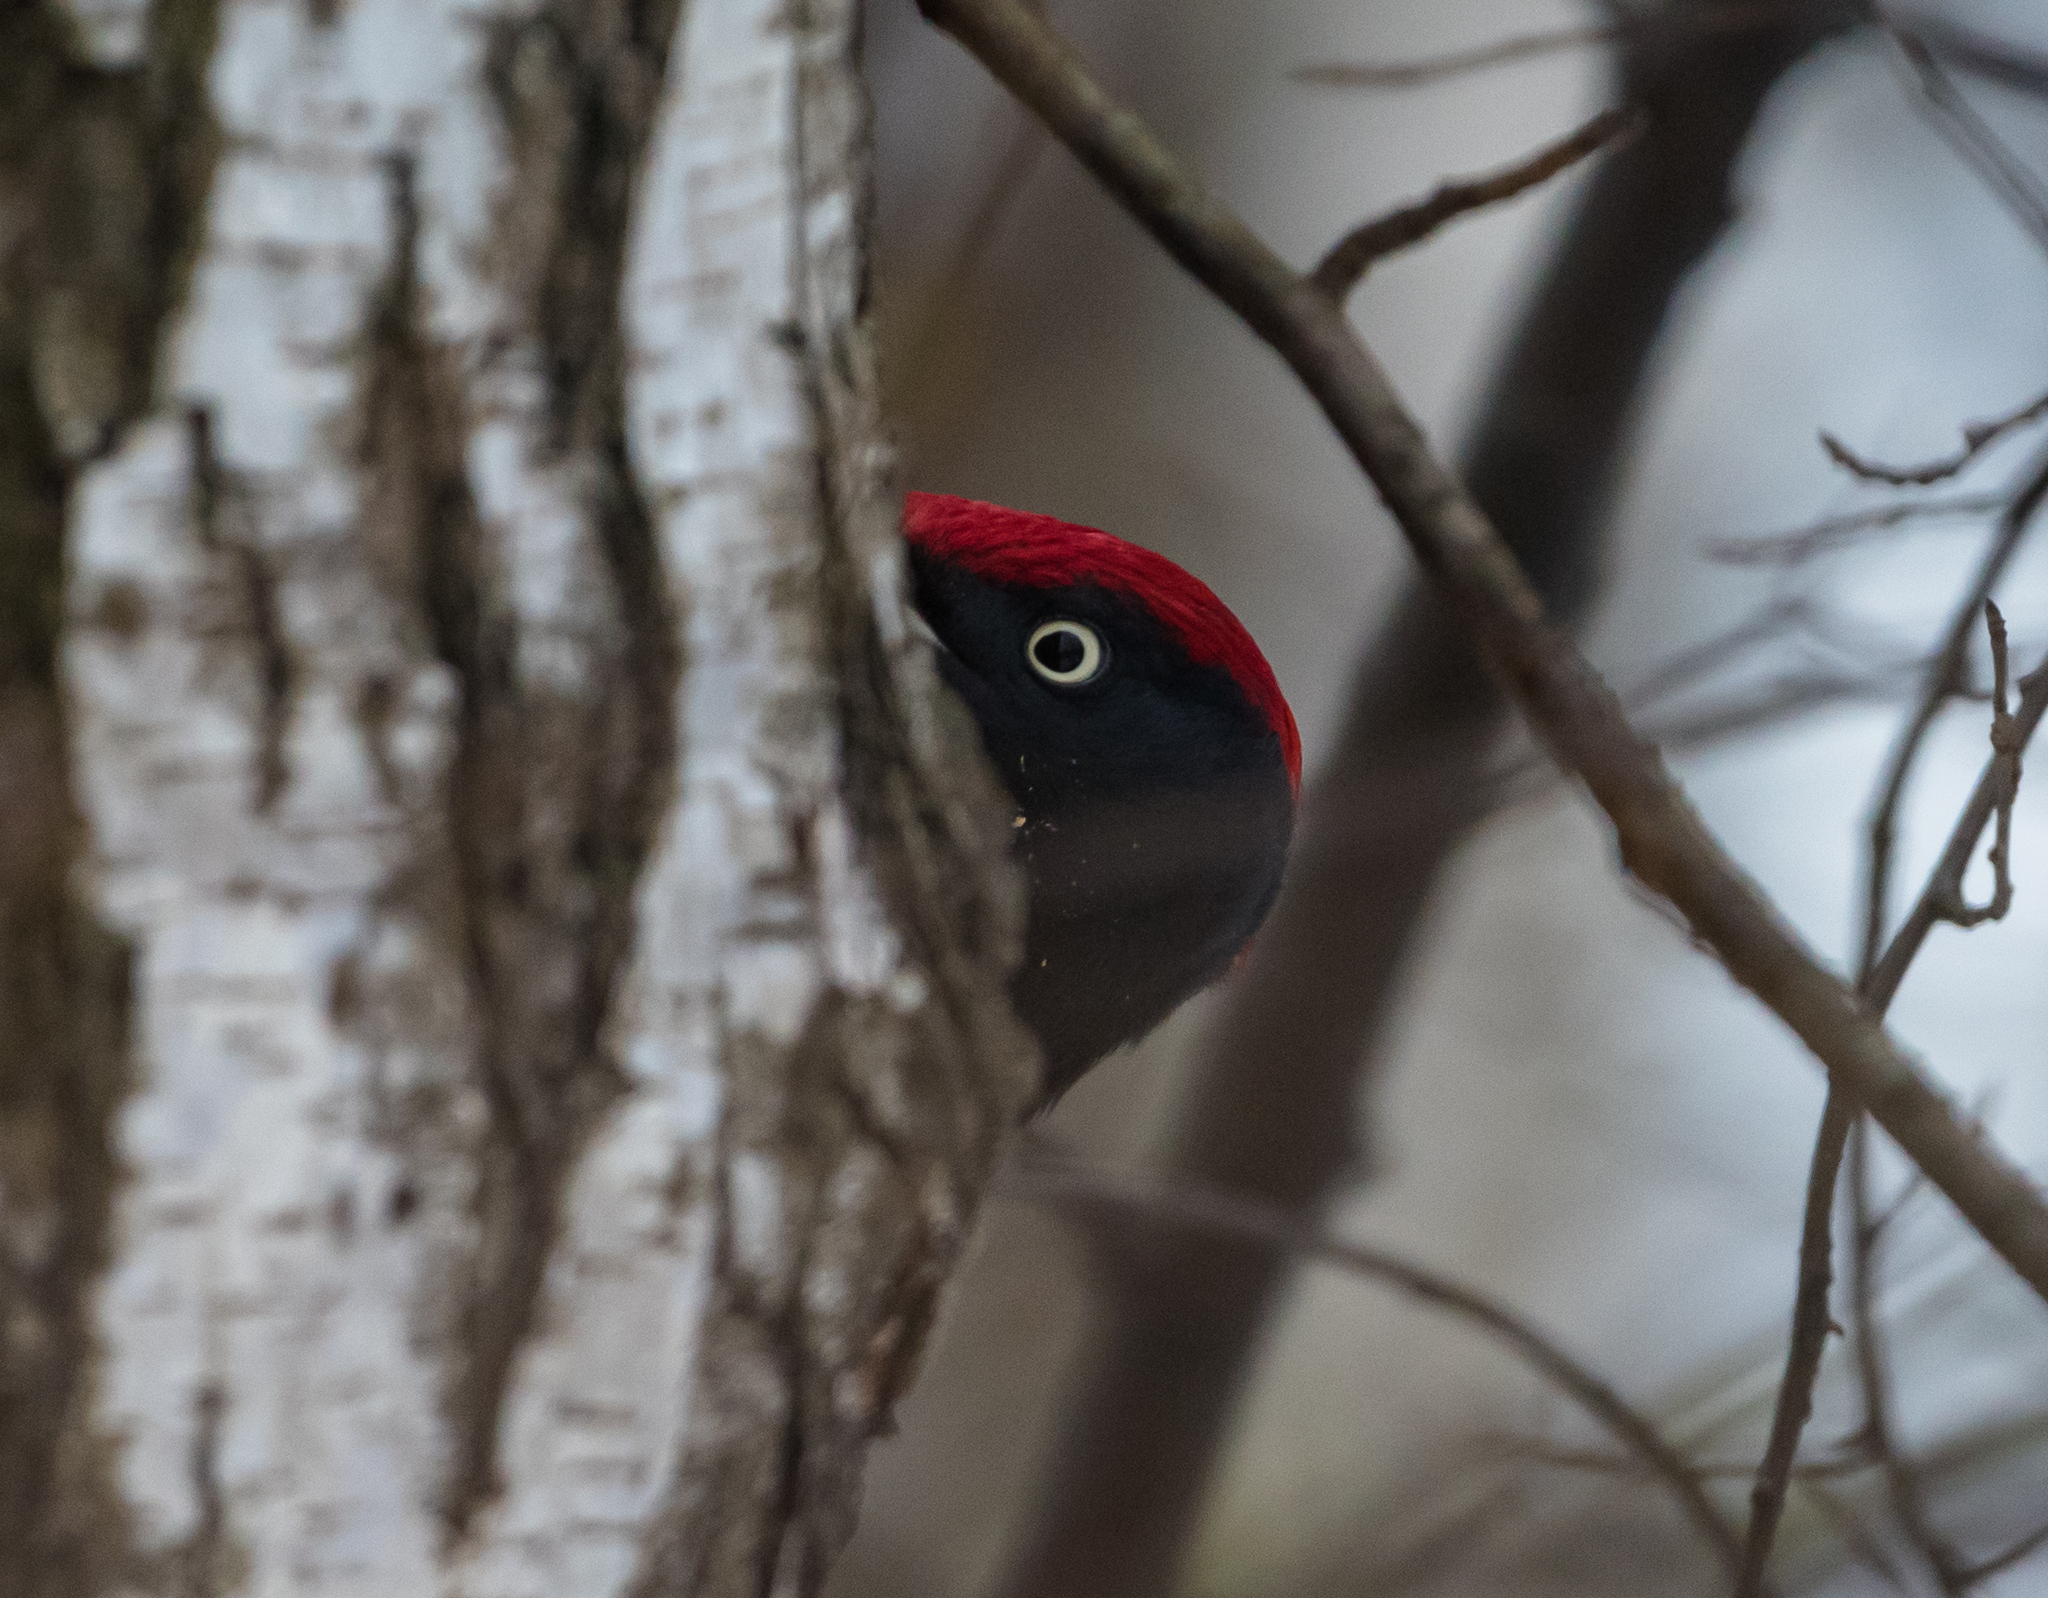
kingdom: Animalia
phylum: Chordata
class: Aves
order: Piciformes
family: Picidae
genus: Dryocopus
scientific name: Dryocopus martius
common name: Black woodpecker
